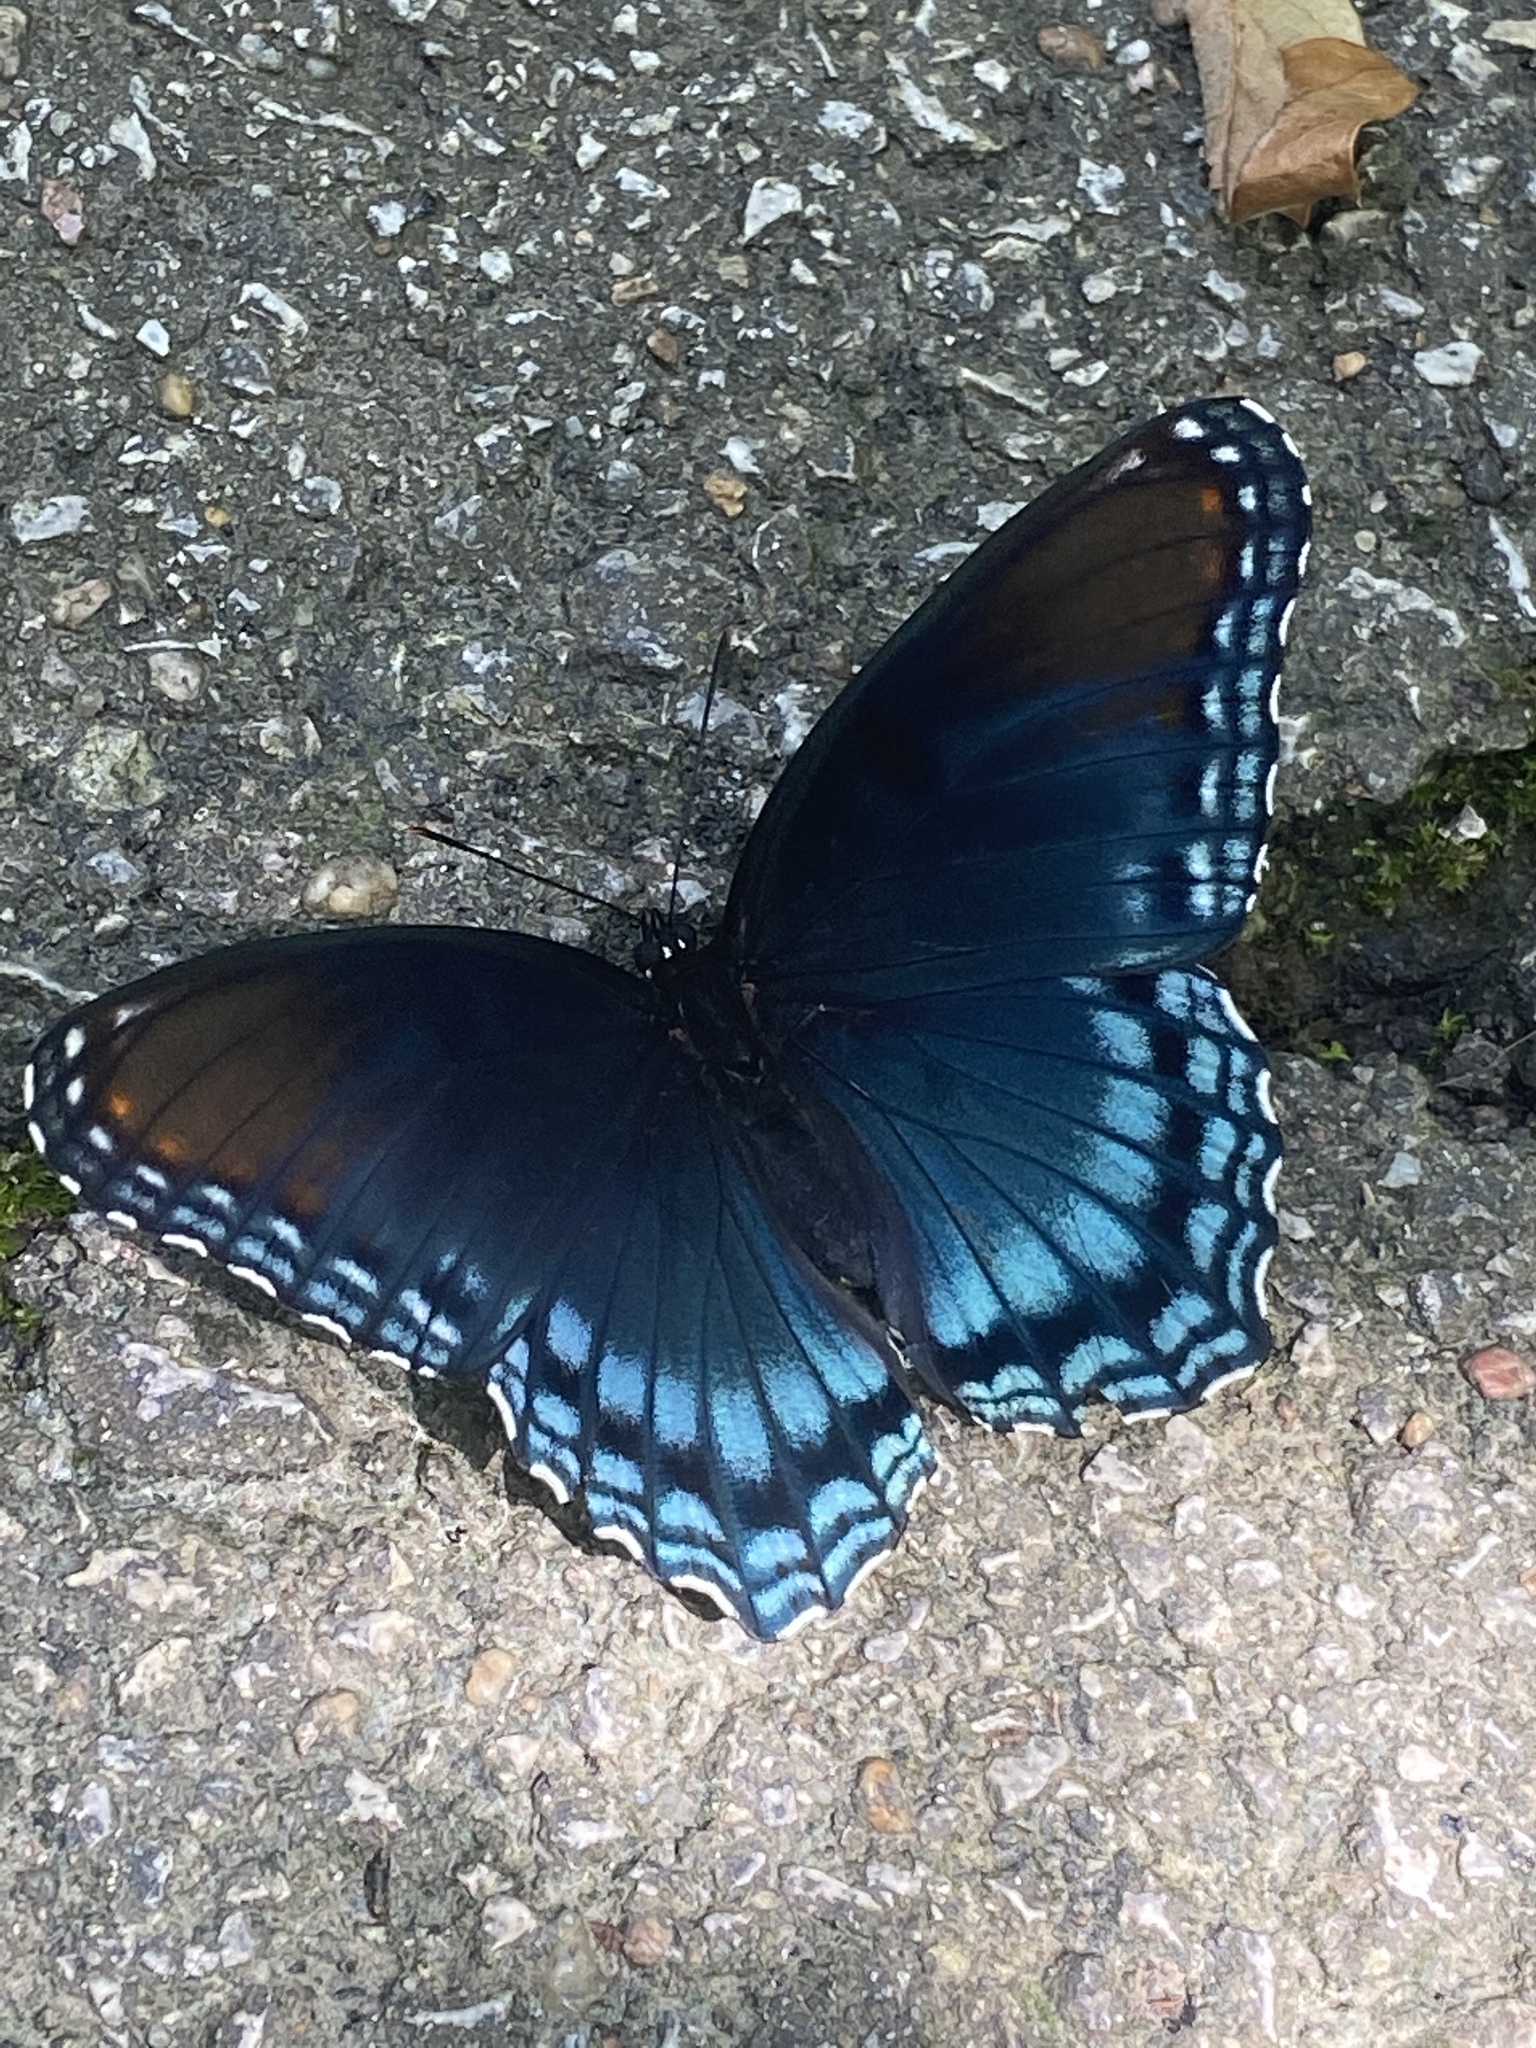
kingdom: Animalia
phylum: Arthropoda
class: Insecta
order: Lepidoptera
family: Nymphalidae
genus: Limenitis
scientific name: Limenitis astyanax
